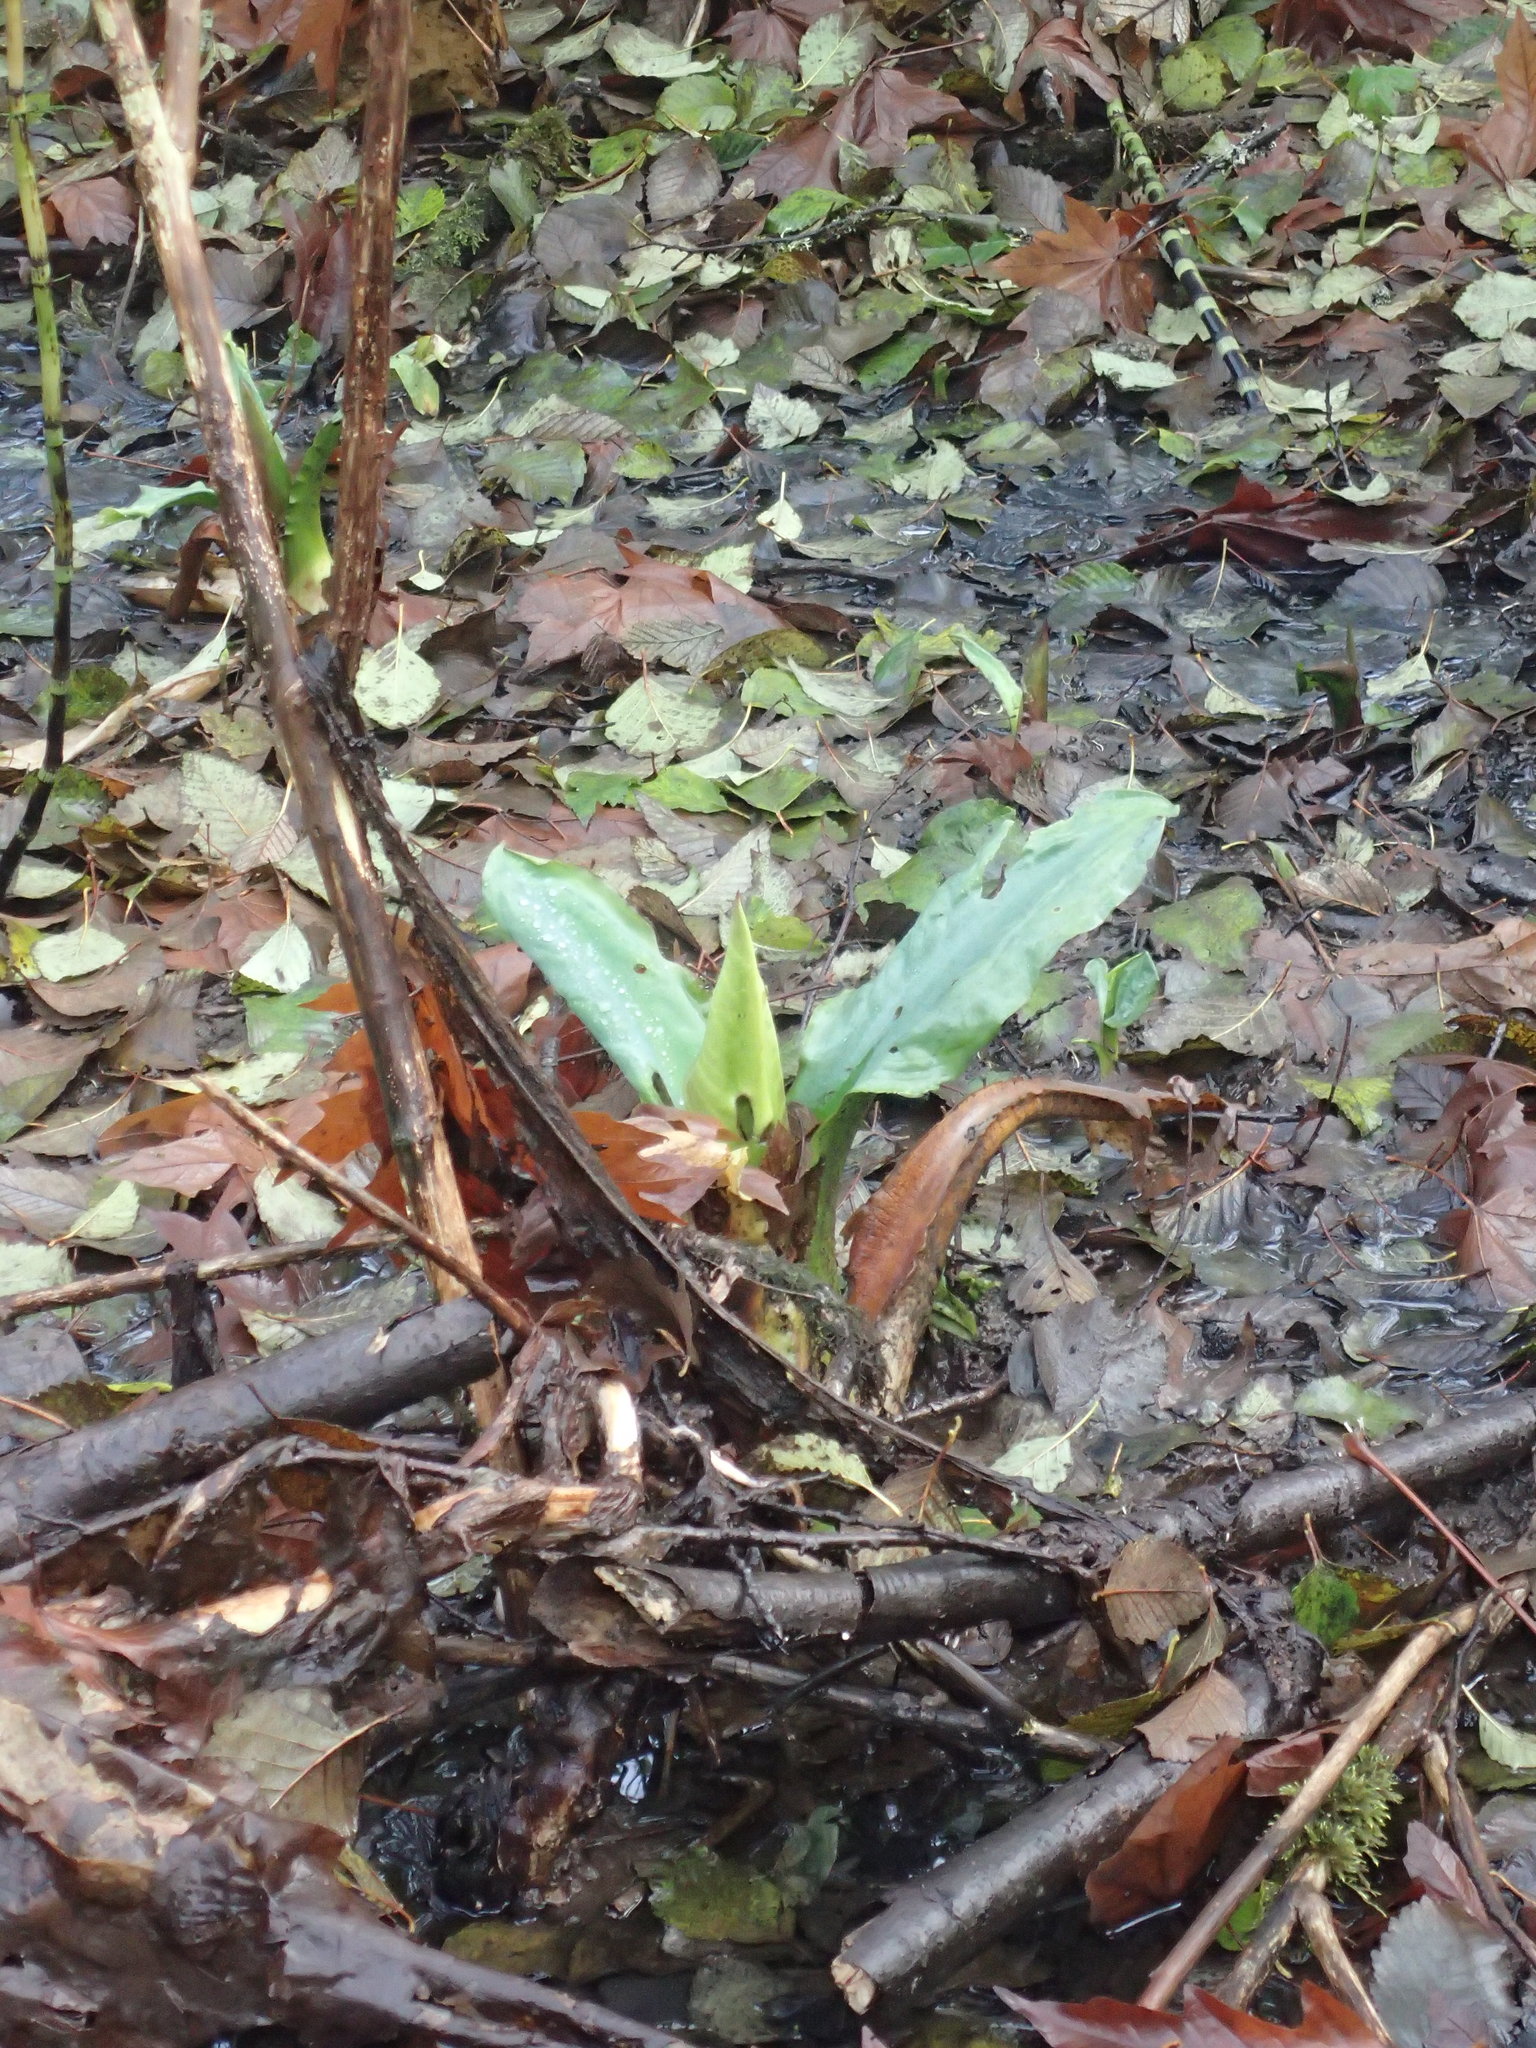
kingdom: Plantae
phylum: Tracheophyta
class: Liliopsida
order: Alismatales
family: Araceae
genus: Lysichiton
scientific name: Lysichiton americanus
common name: American skunk cabbage
